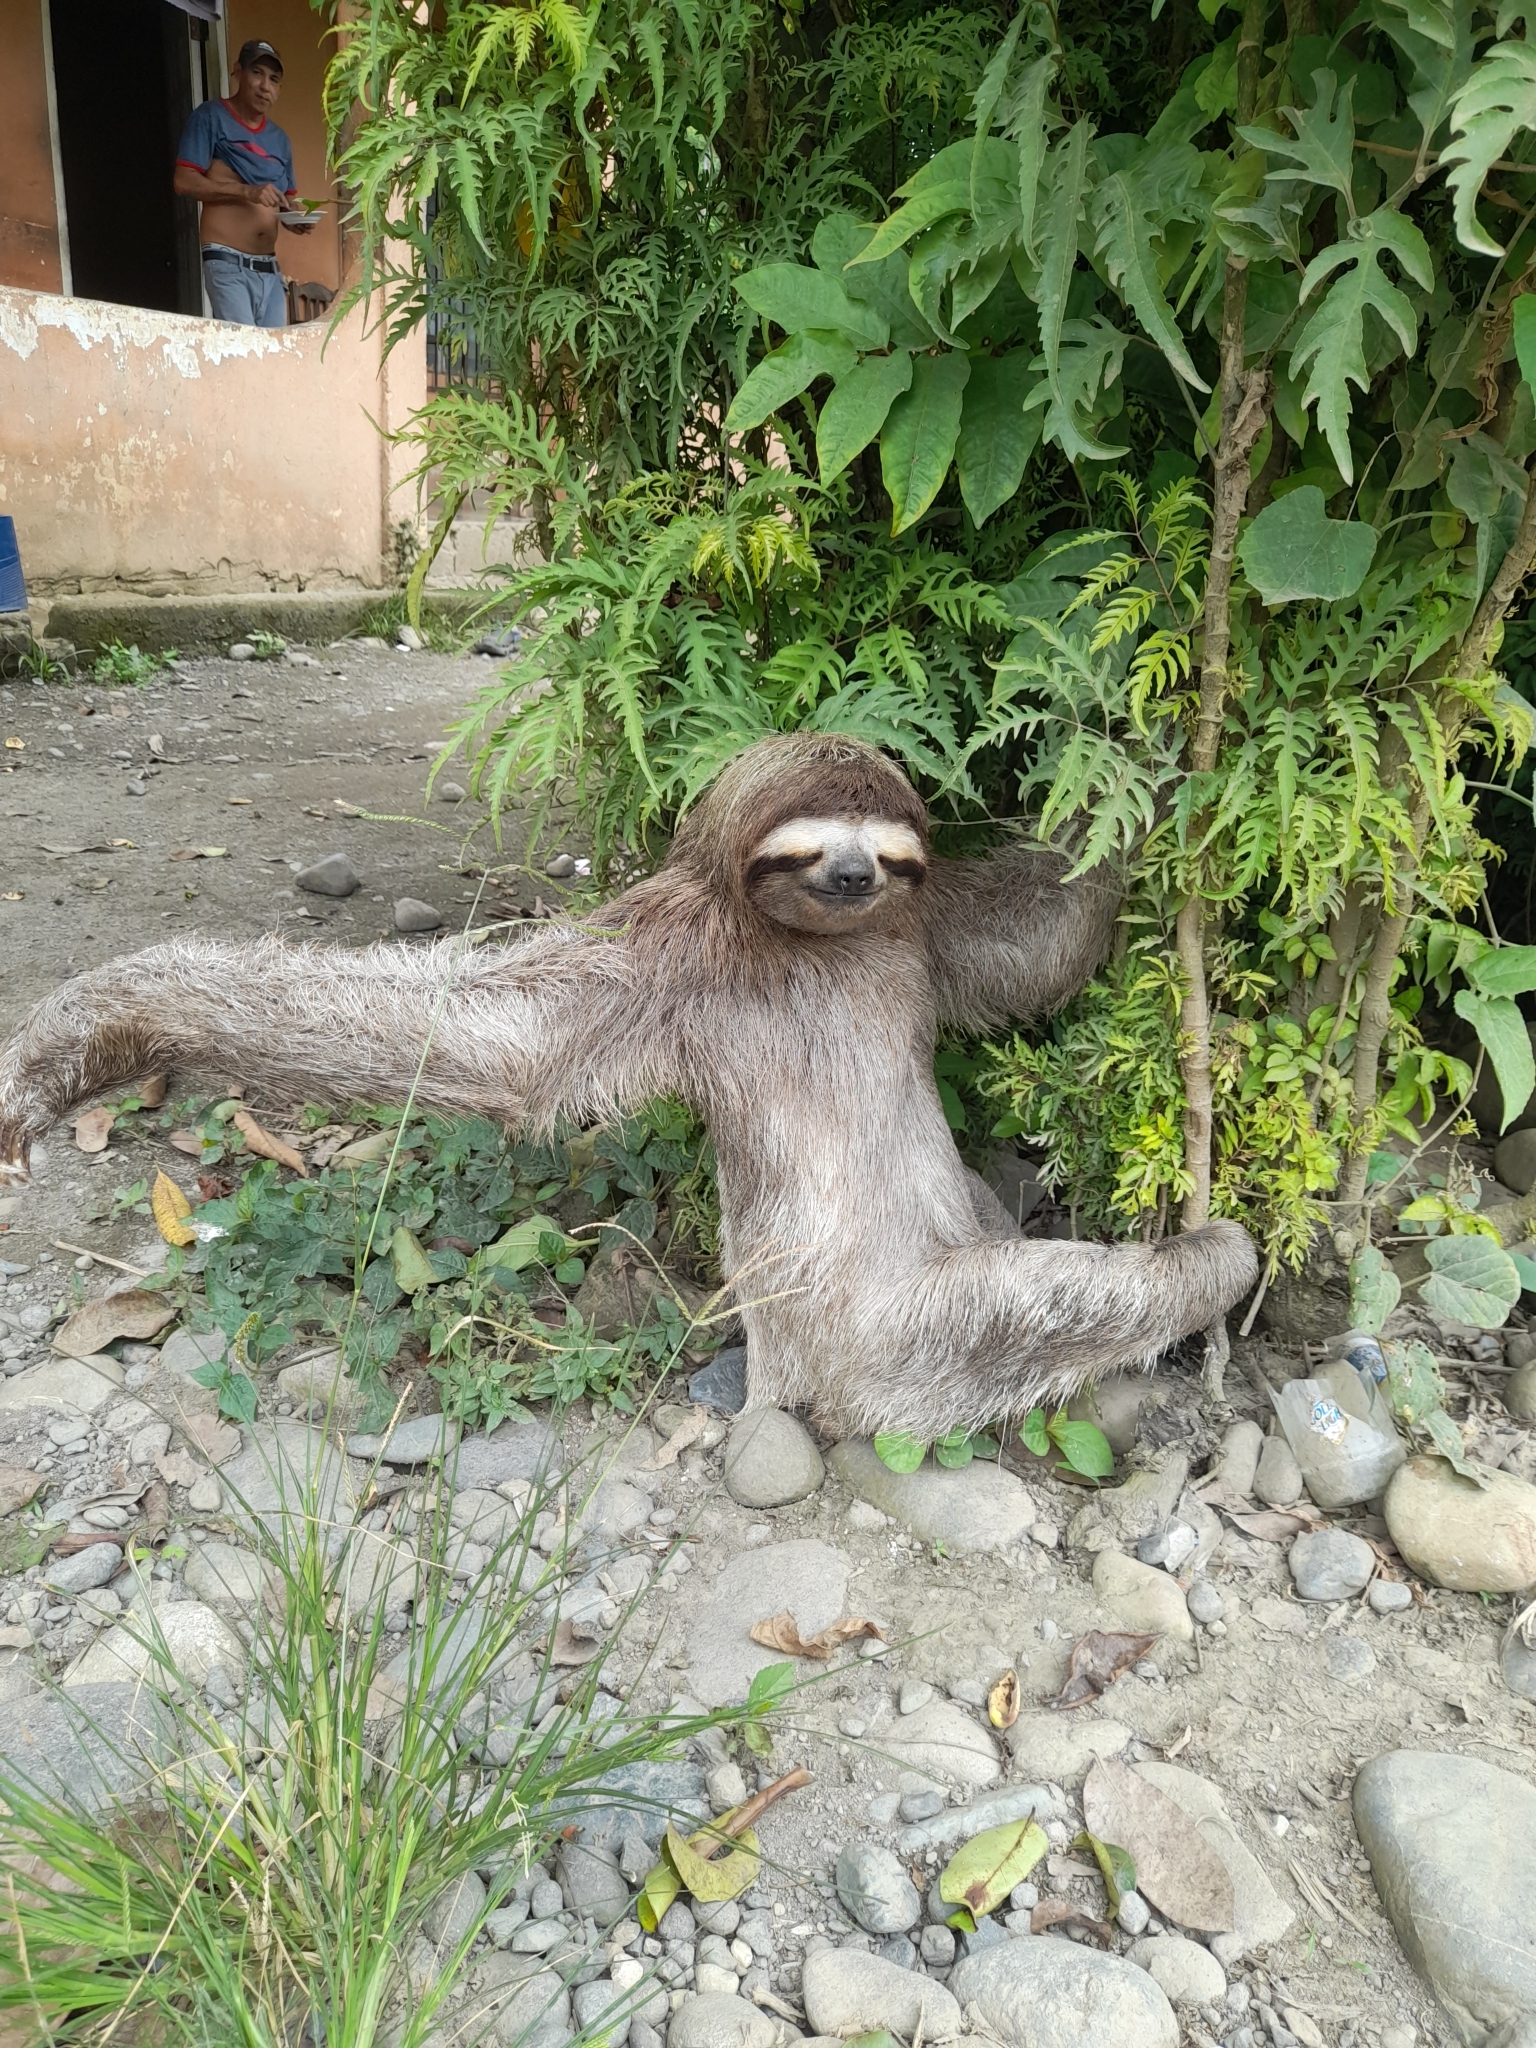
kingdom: Animalia
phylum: Chordata
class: Mammalia
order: Pilosa
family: Bradypodidae
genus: Bradypus
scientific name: Bradypus variegatus
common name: Brown-throated three-toed sloth
